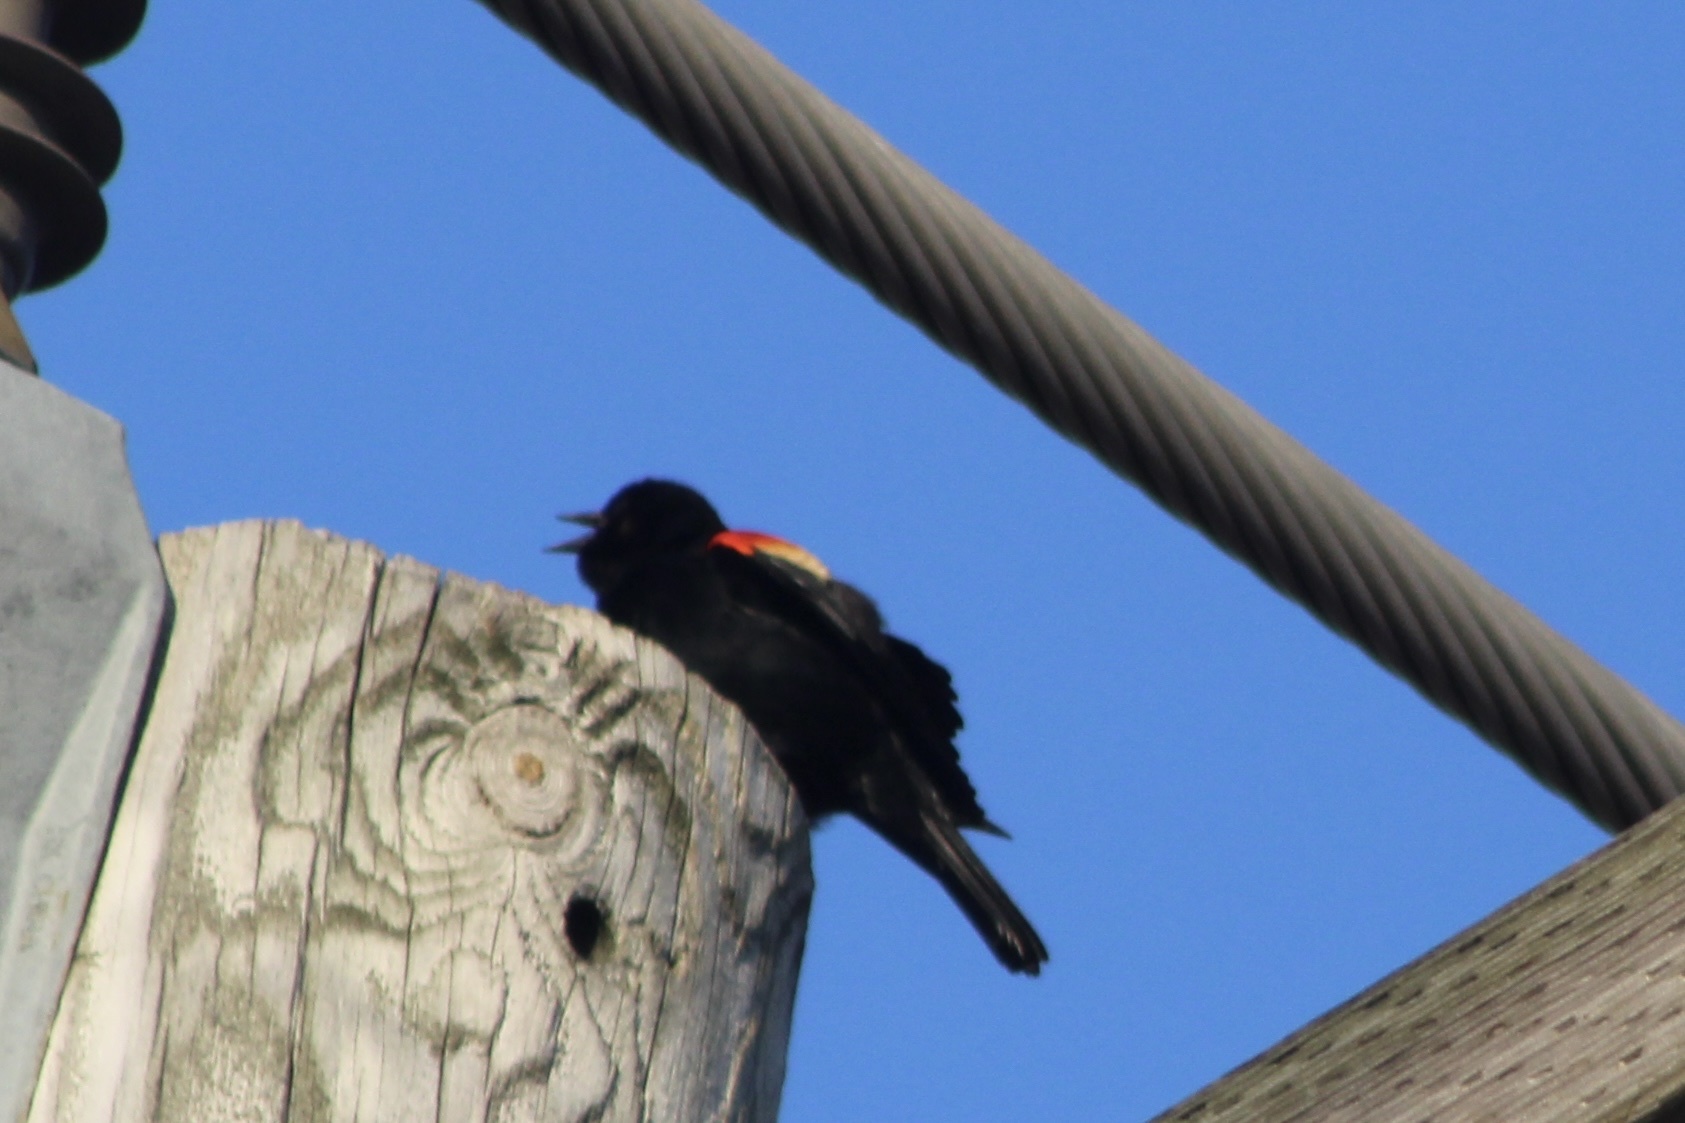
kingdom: Animalia
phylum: Chordata
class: Aves
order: Passeriformes
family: Icteridae
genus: Agelaius
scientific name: Agelaius phoeniceus
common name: Red-winged blackbird
